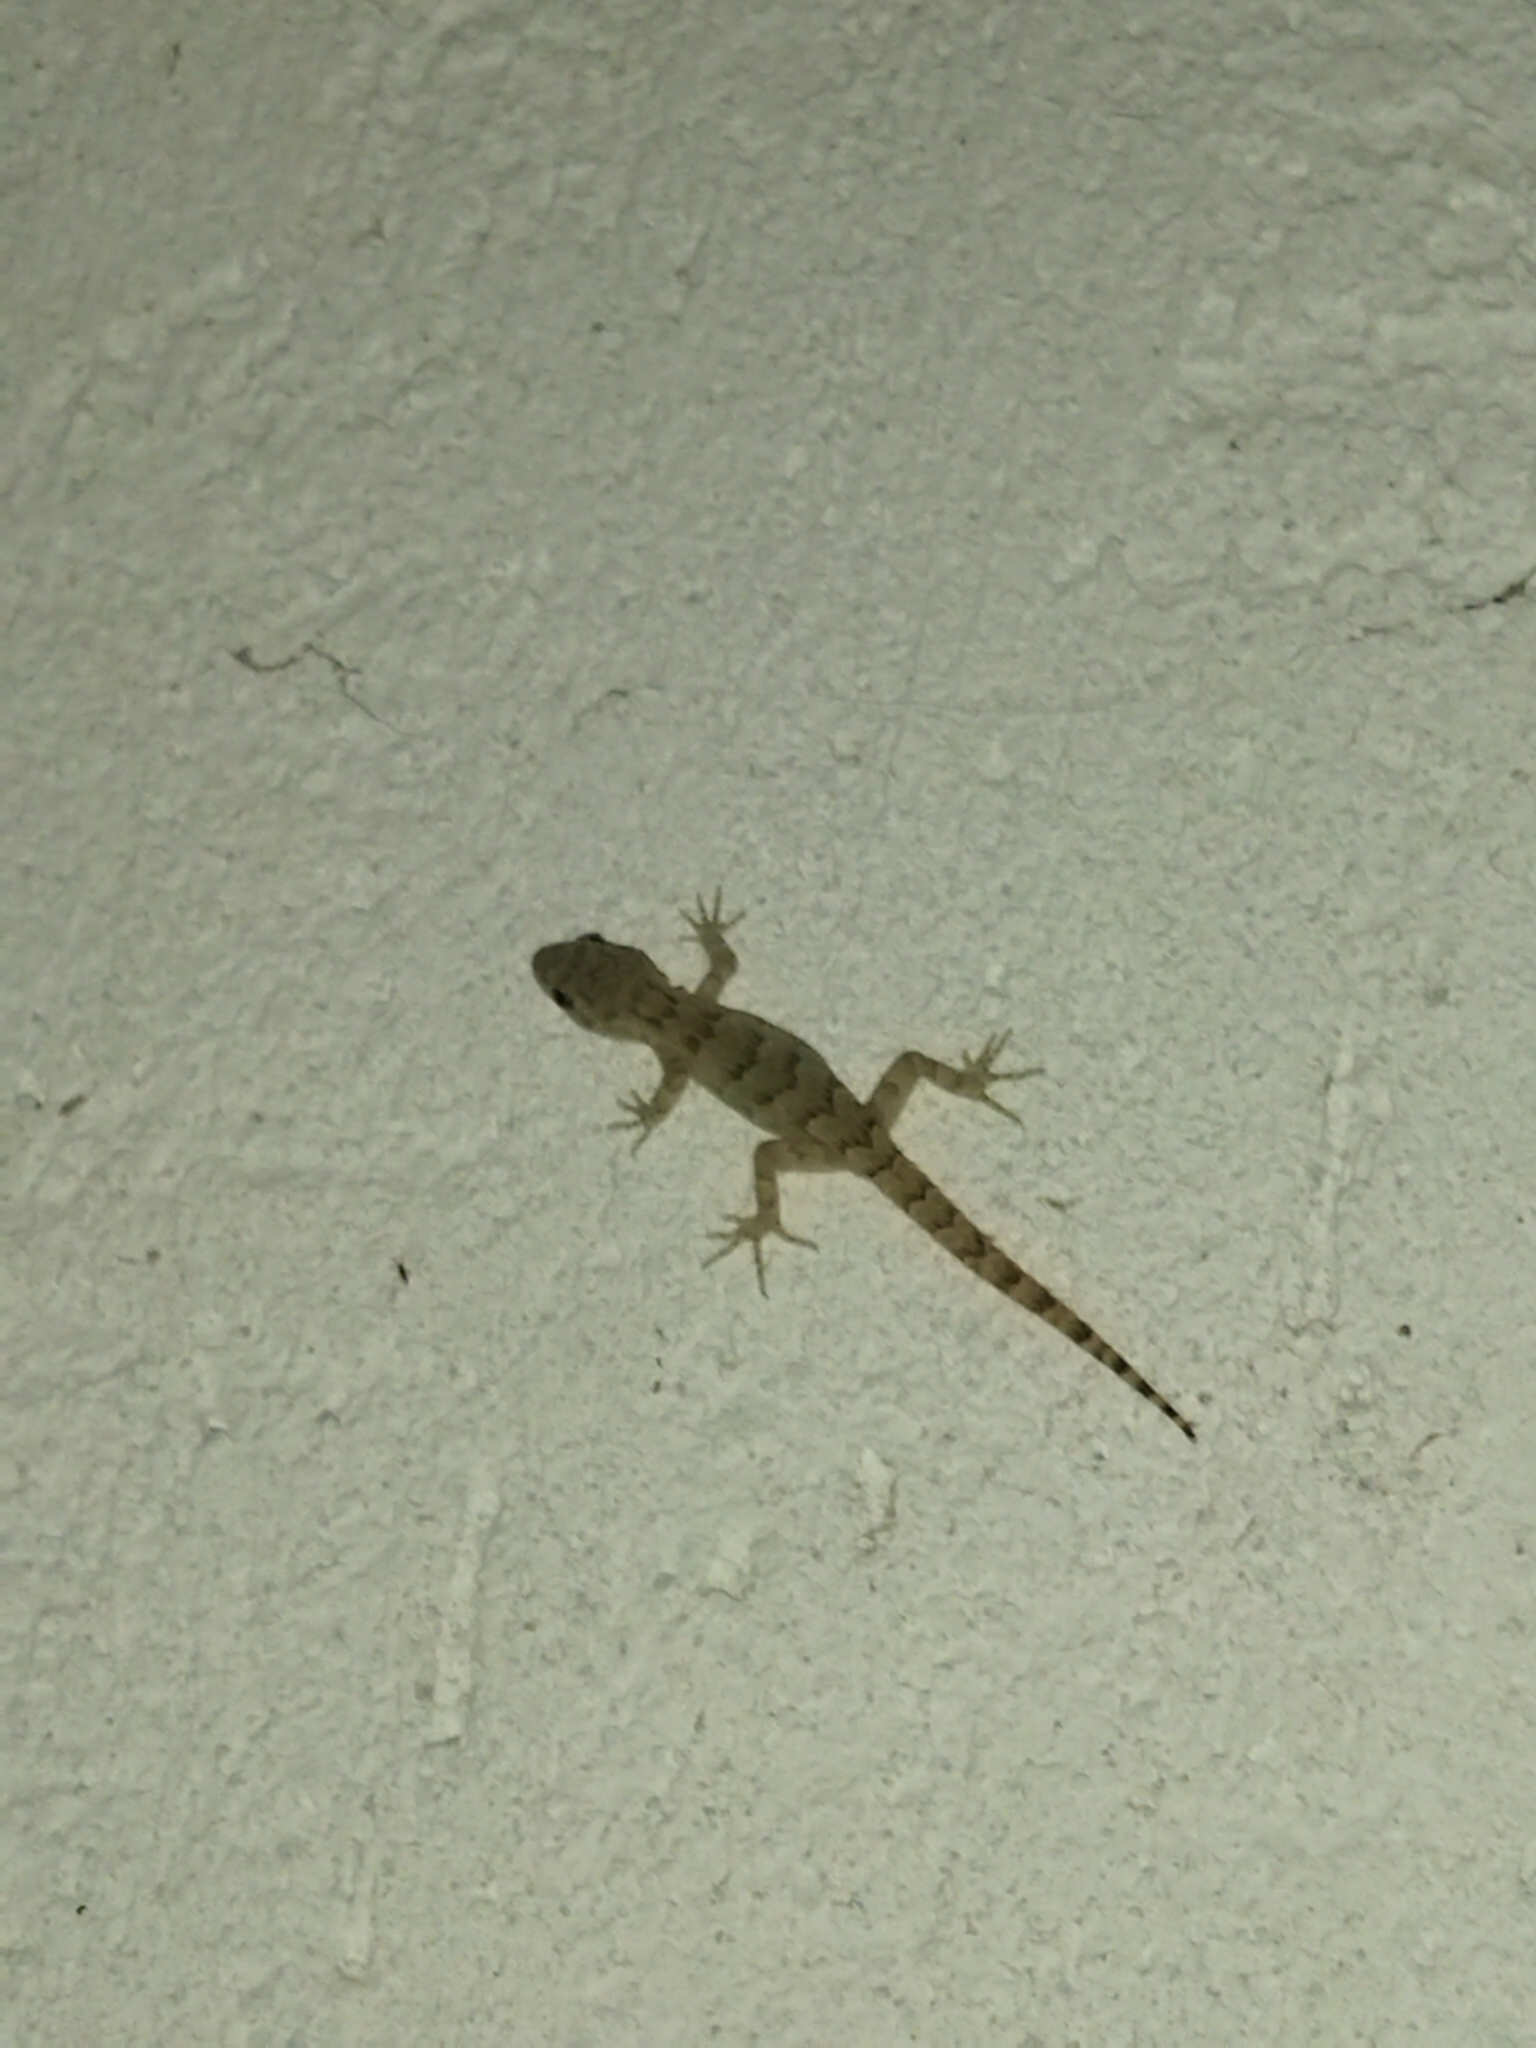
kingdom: Animalia
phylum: Chordata
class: Squamata
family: Gekkonidae
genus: Mediodactylus
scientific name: Mediodactylus kotschyi
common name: Kotschy's gecko
